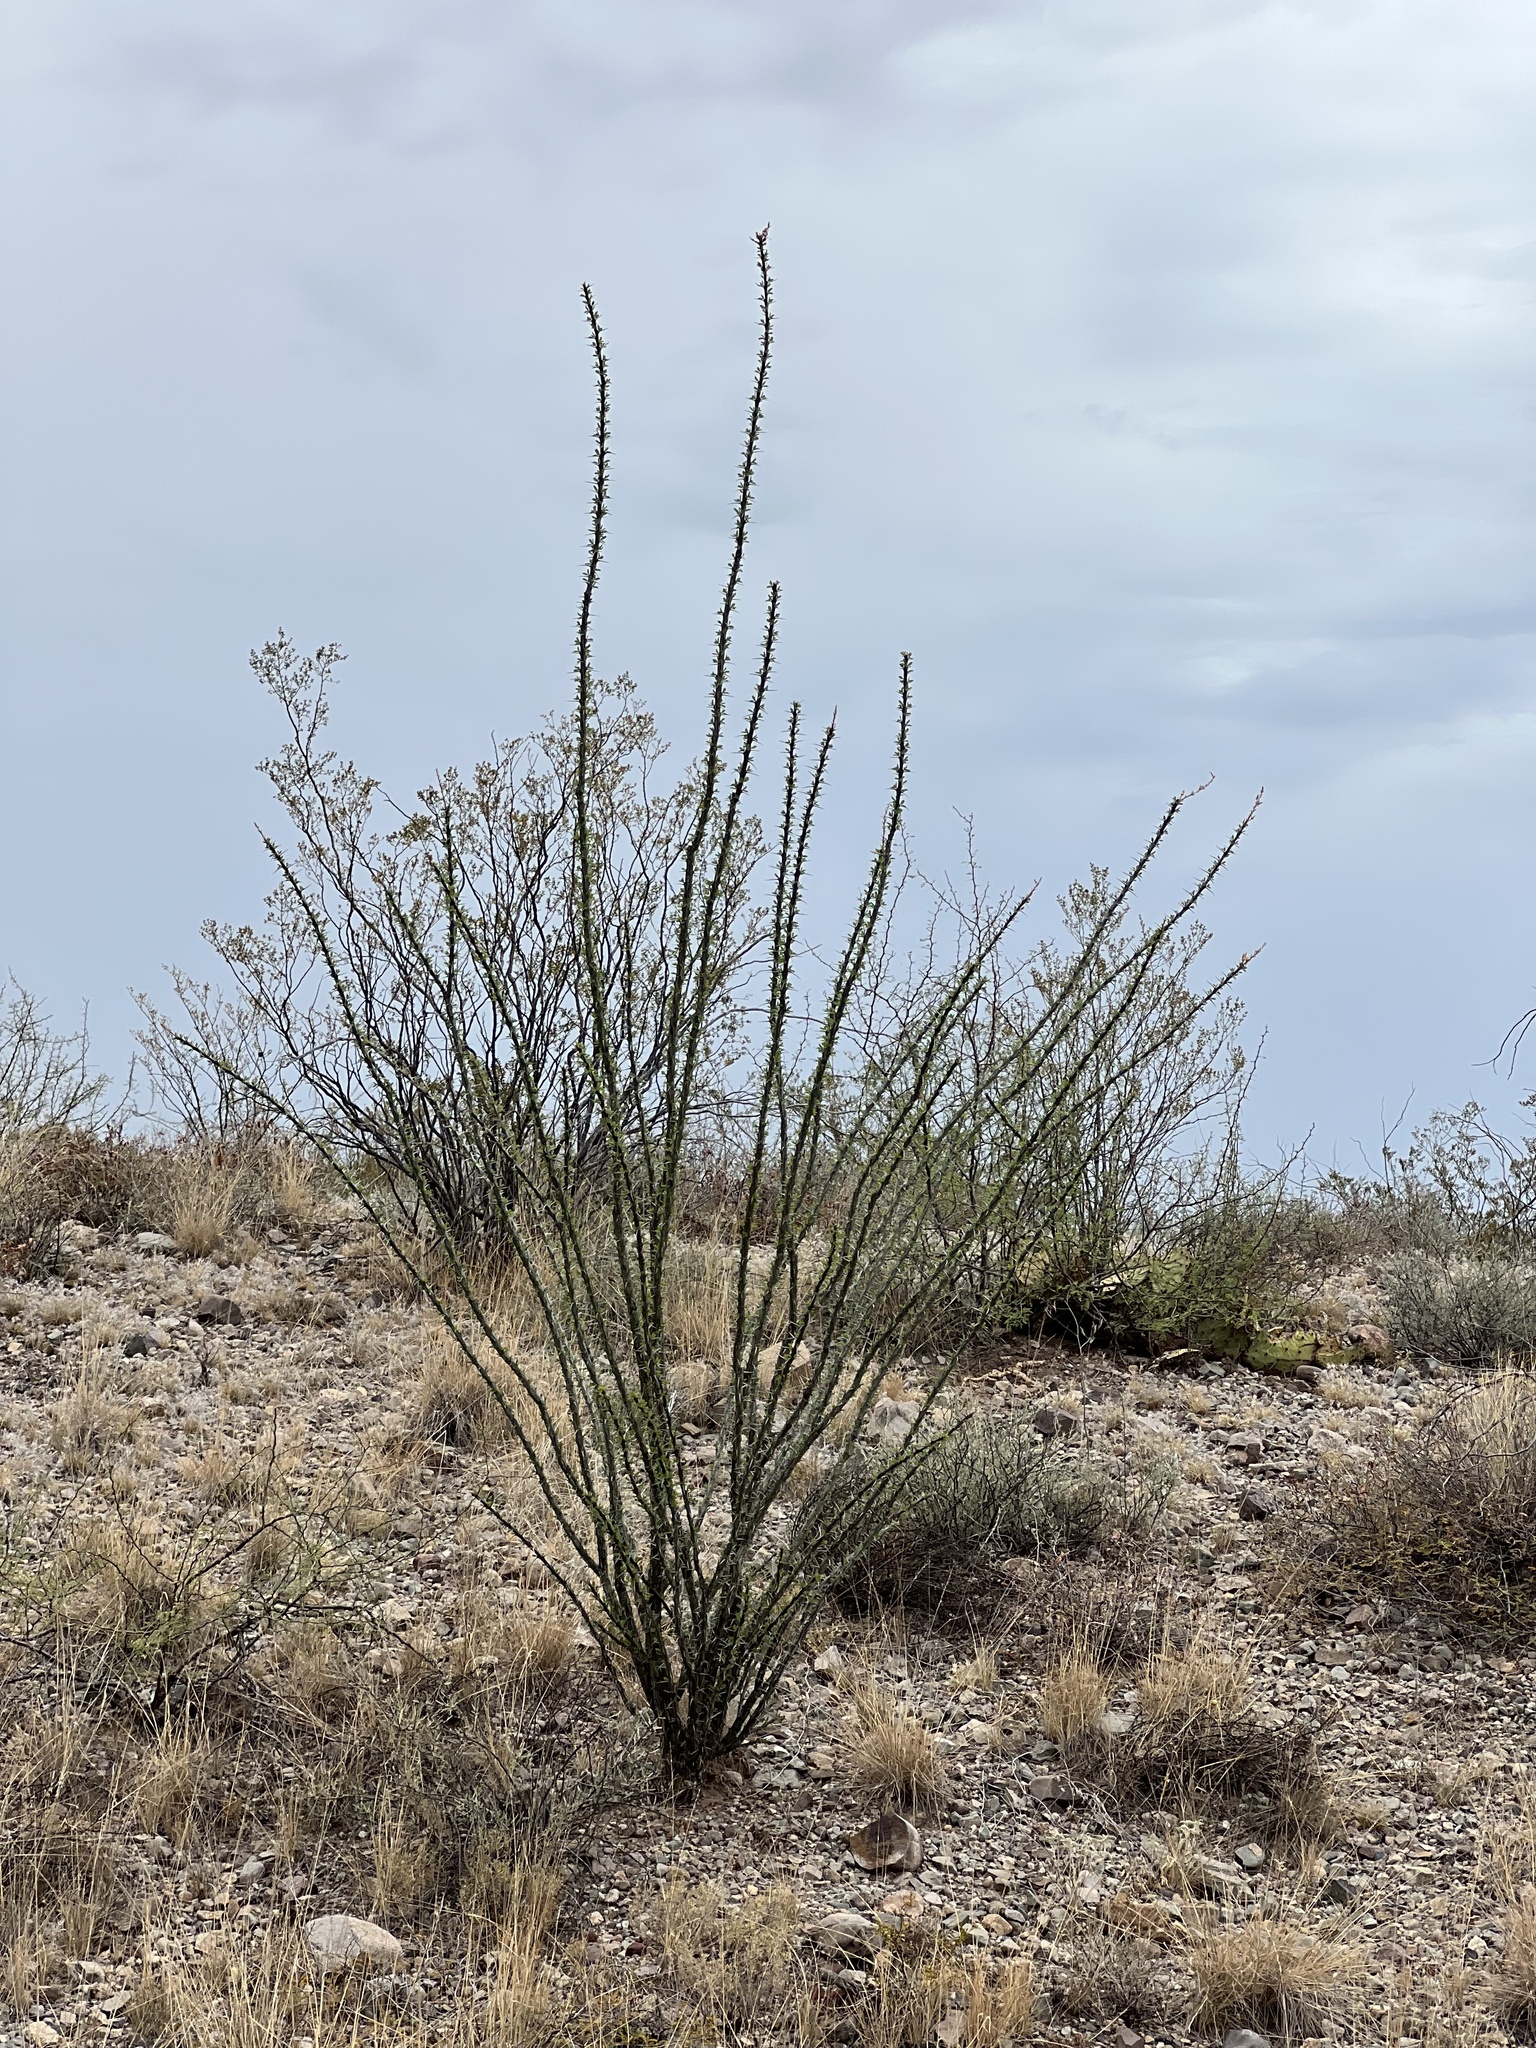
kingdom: Plantae
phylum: Tracheophyta
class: Magnoliopsida
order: Ericales
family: Fouquieriaceae
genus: Fouquieria
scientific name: Fouquieria splendens
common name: Vine-cactus
